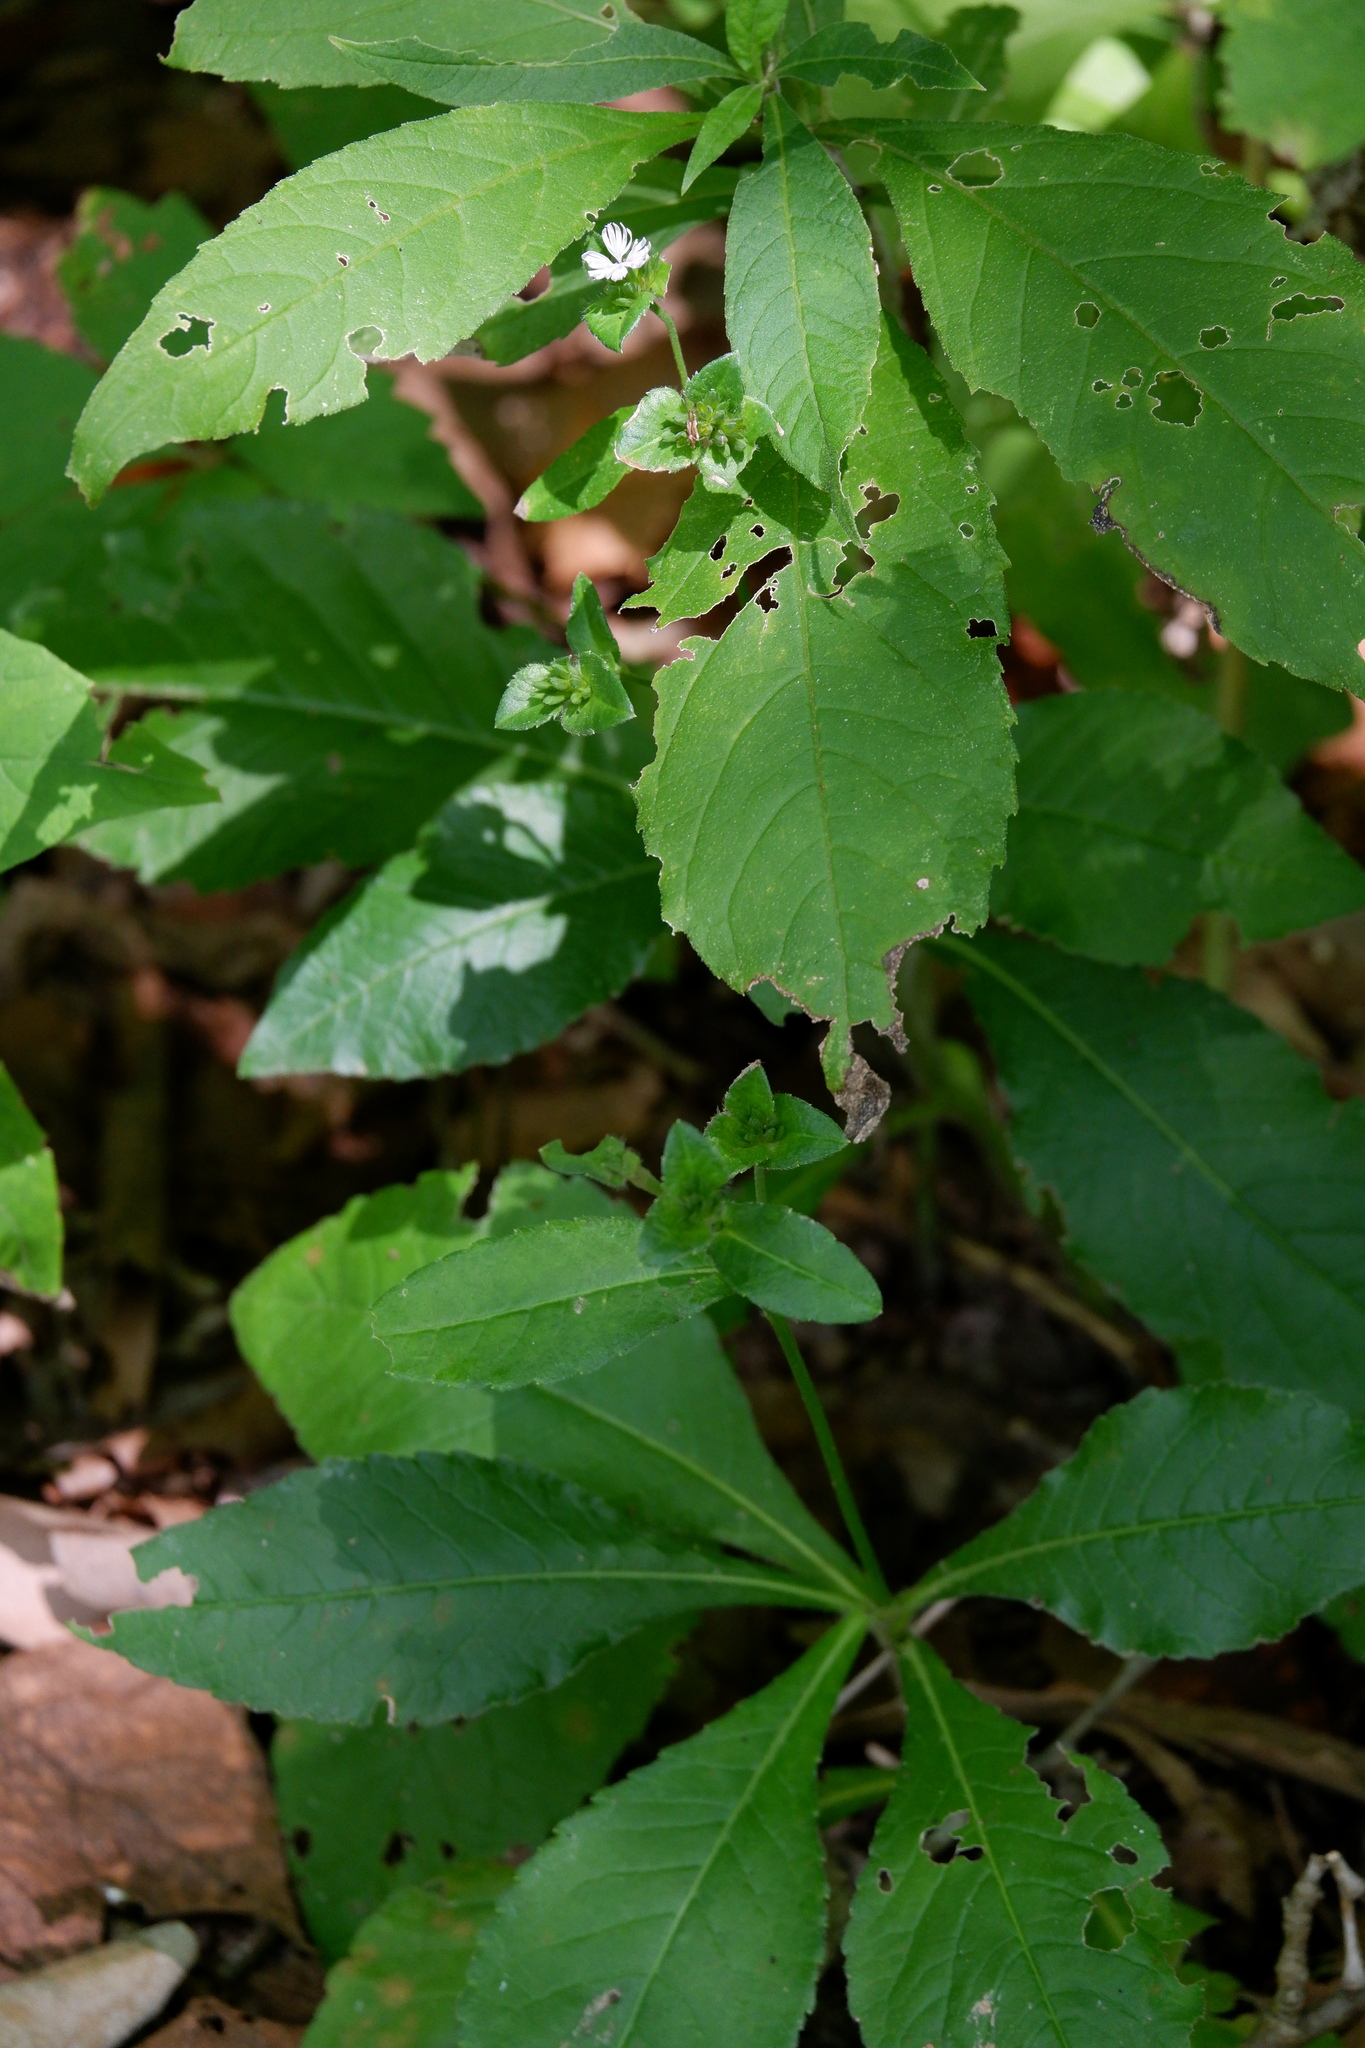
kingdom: Plantae
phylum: Tracheophyta
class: Magnoliopsida
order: Asterales
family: Asteraceae
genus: Elephantopus
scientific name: Elephantopus carolinianus
